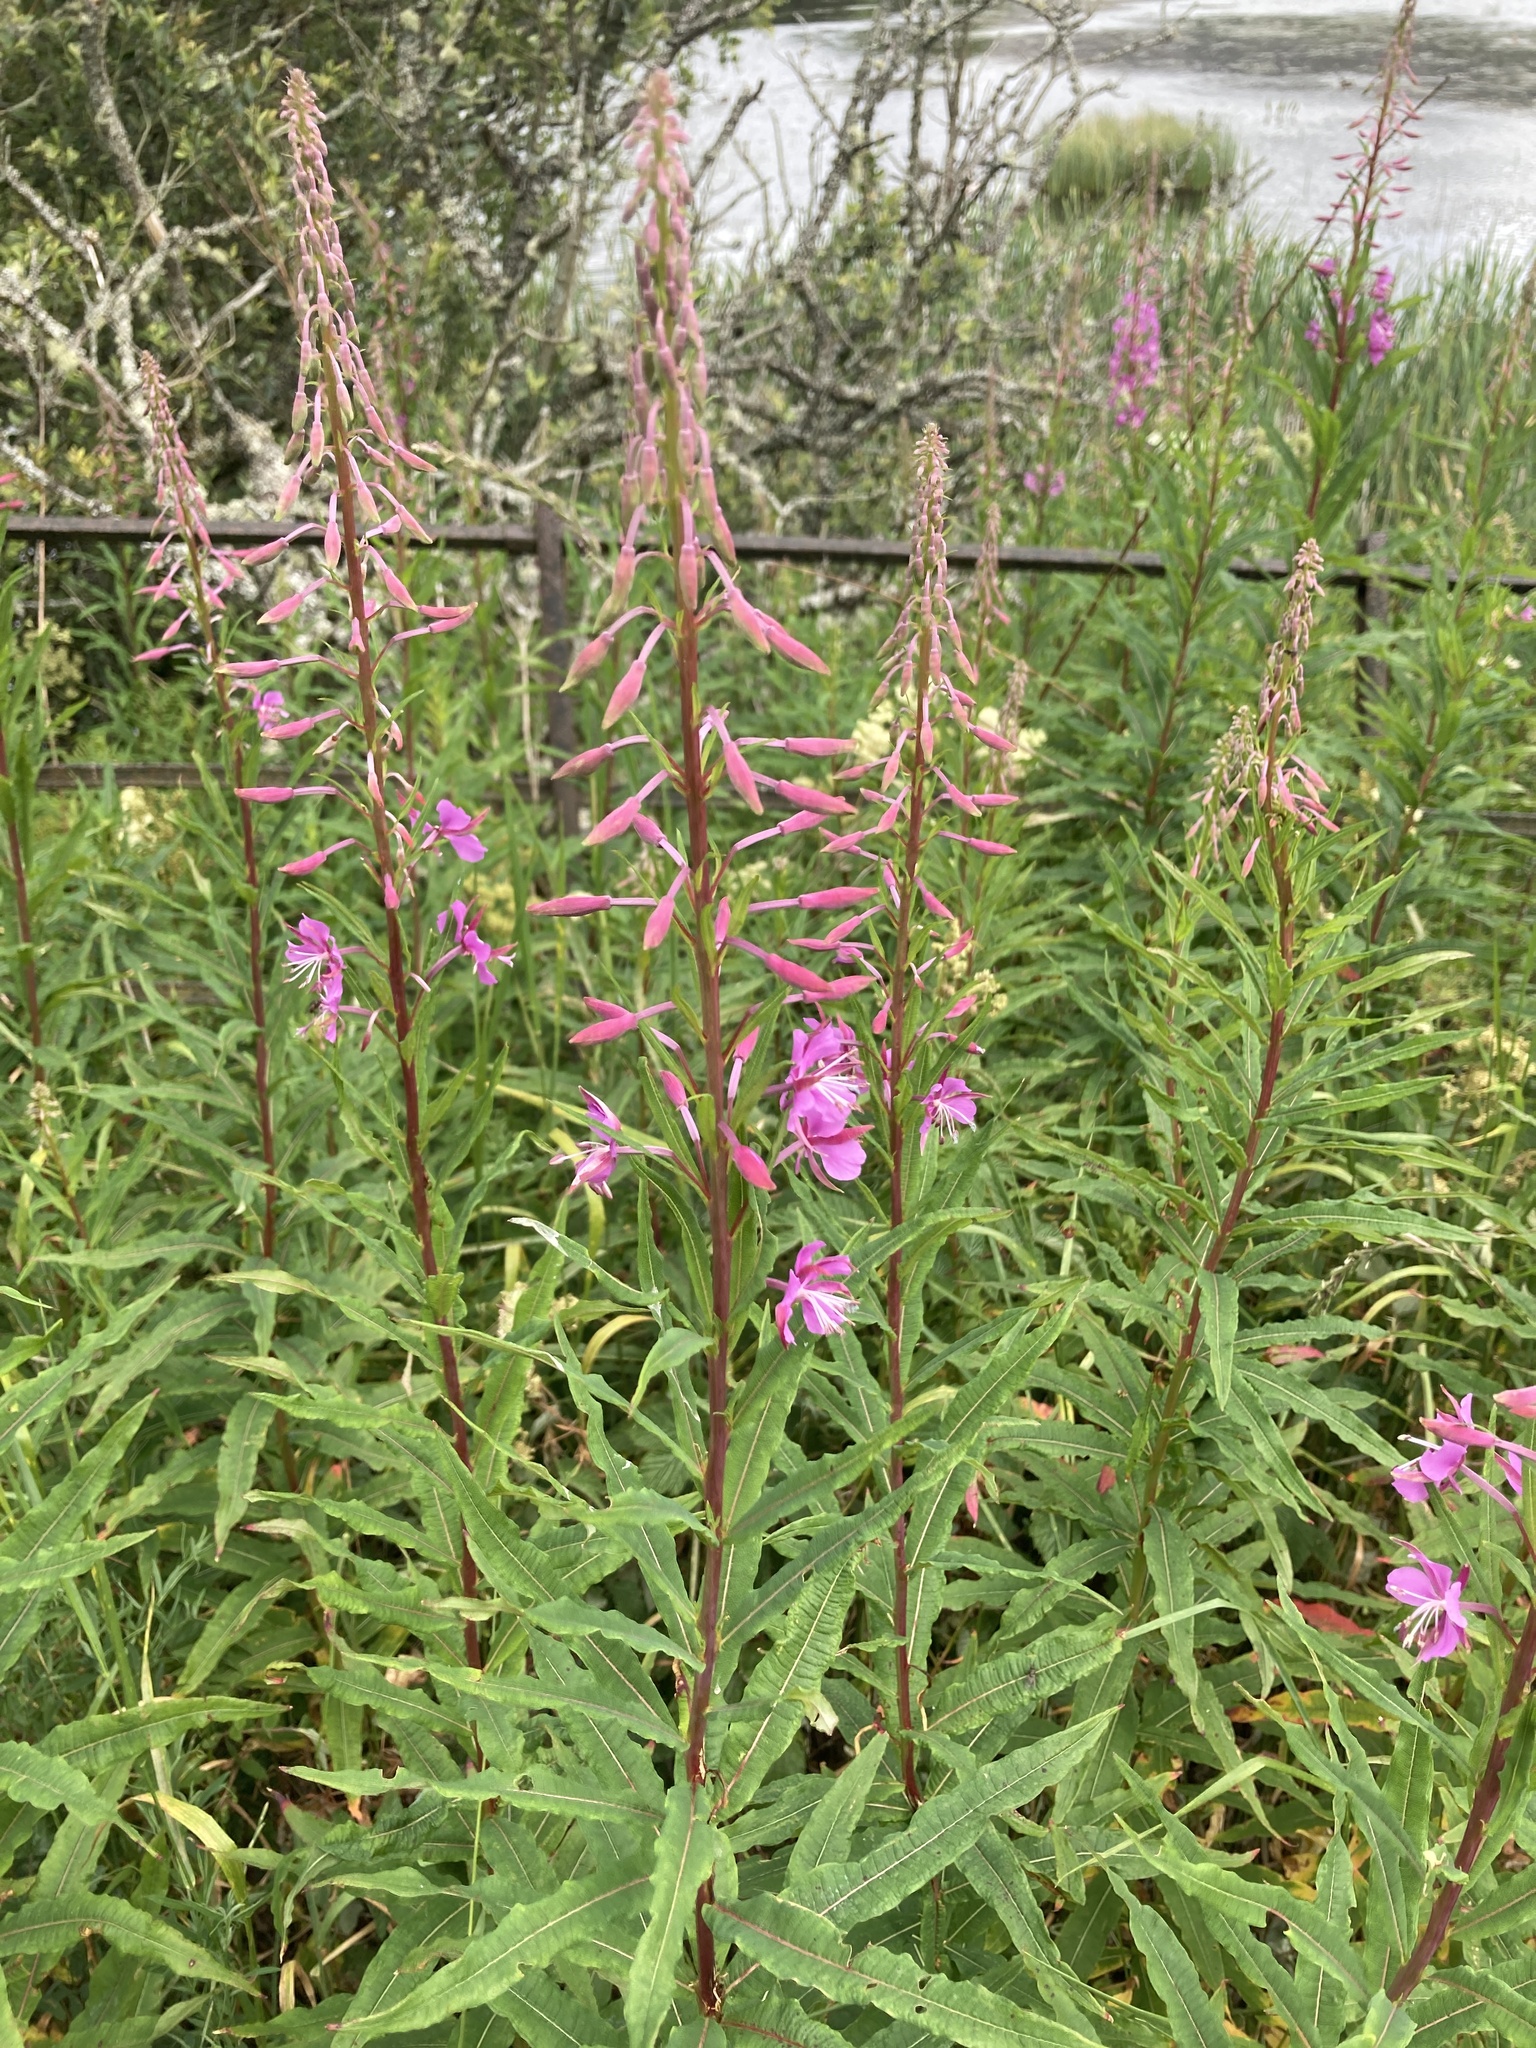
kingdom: Plantae
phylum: Tracheophyta
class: Magnoliopsida
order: Myrtales
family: Onagraceae
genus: Chamaenerion
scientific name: Chamaenerion angustifolium
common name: Fireweed
